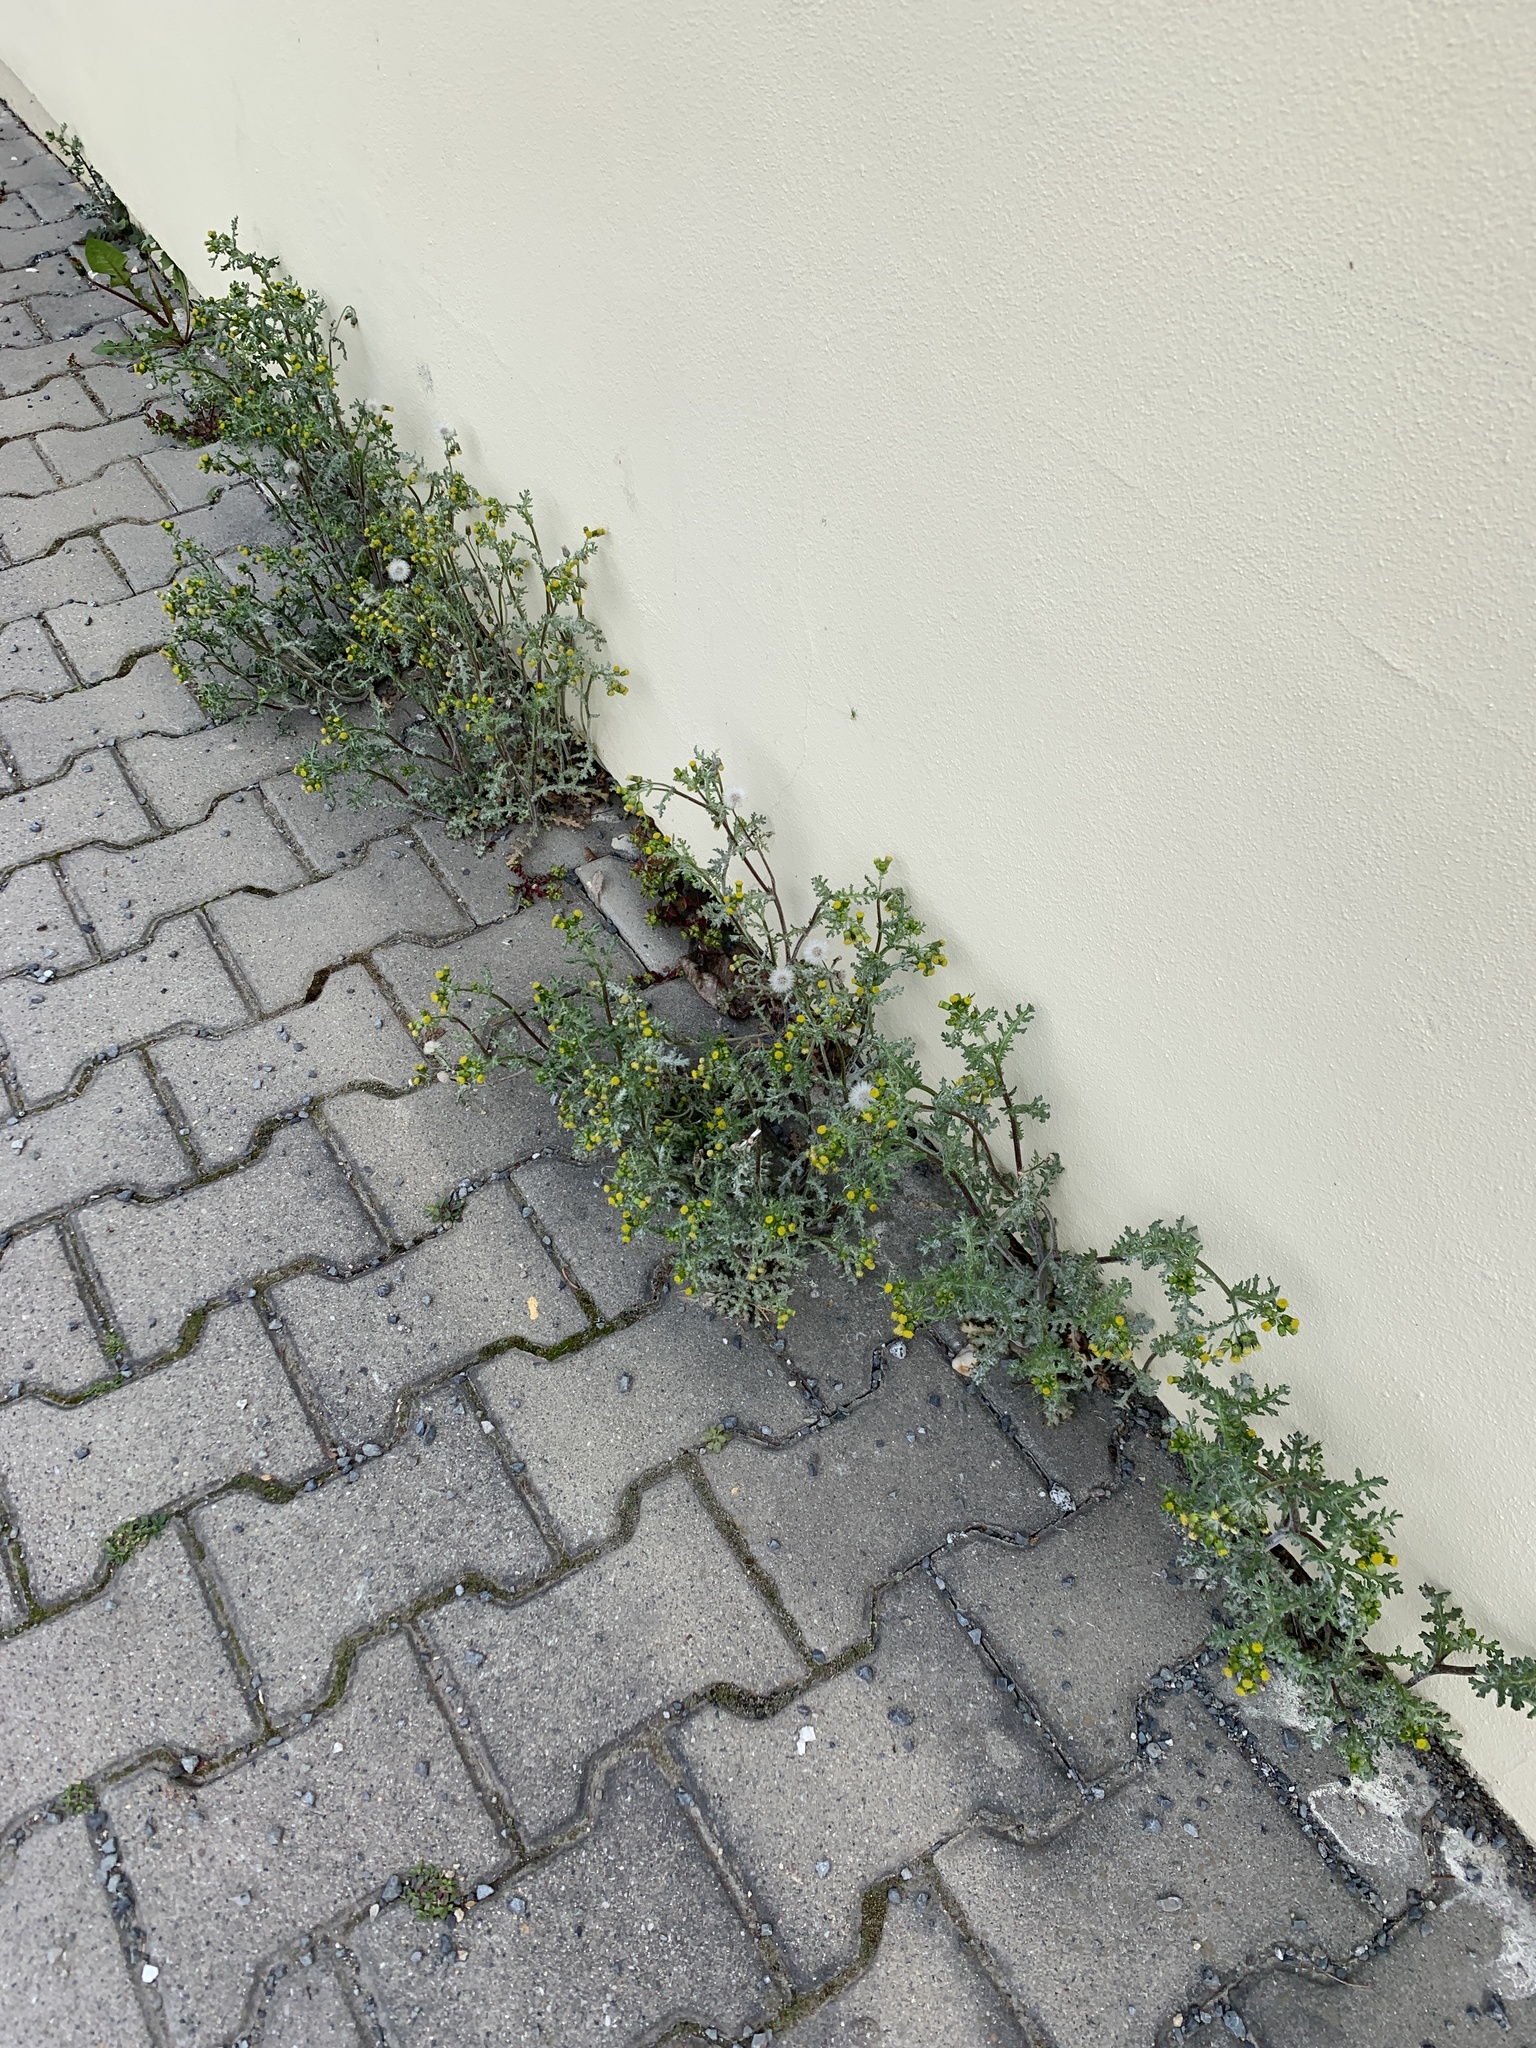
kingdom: Plantae
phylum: Tracheophyta
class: Magnoliopsida
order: Asterales
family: Asteraceae
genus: Senecio
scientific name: Senecio vulgaris
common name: Old-man-in-the-spring
